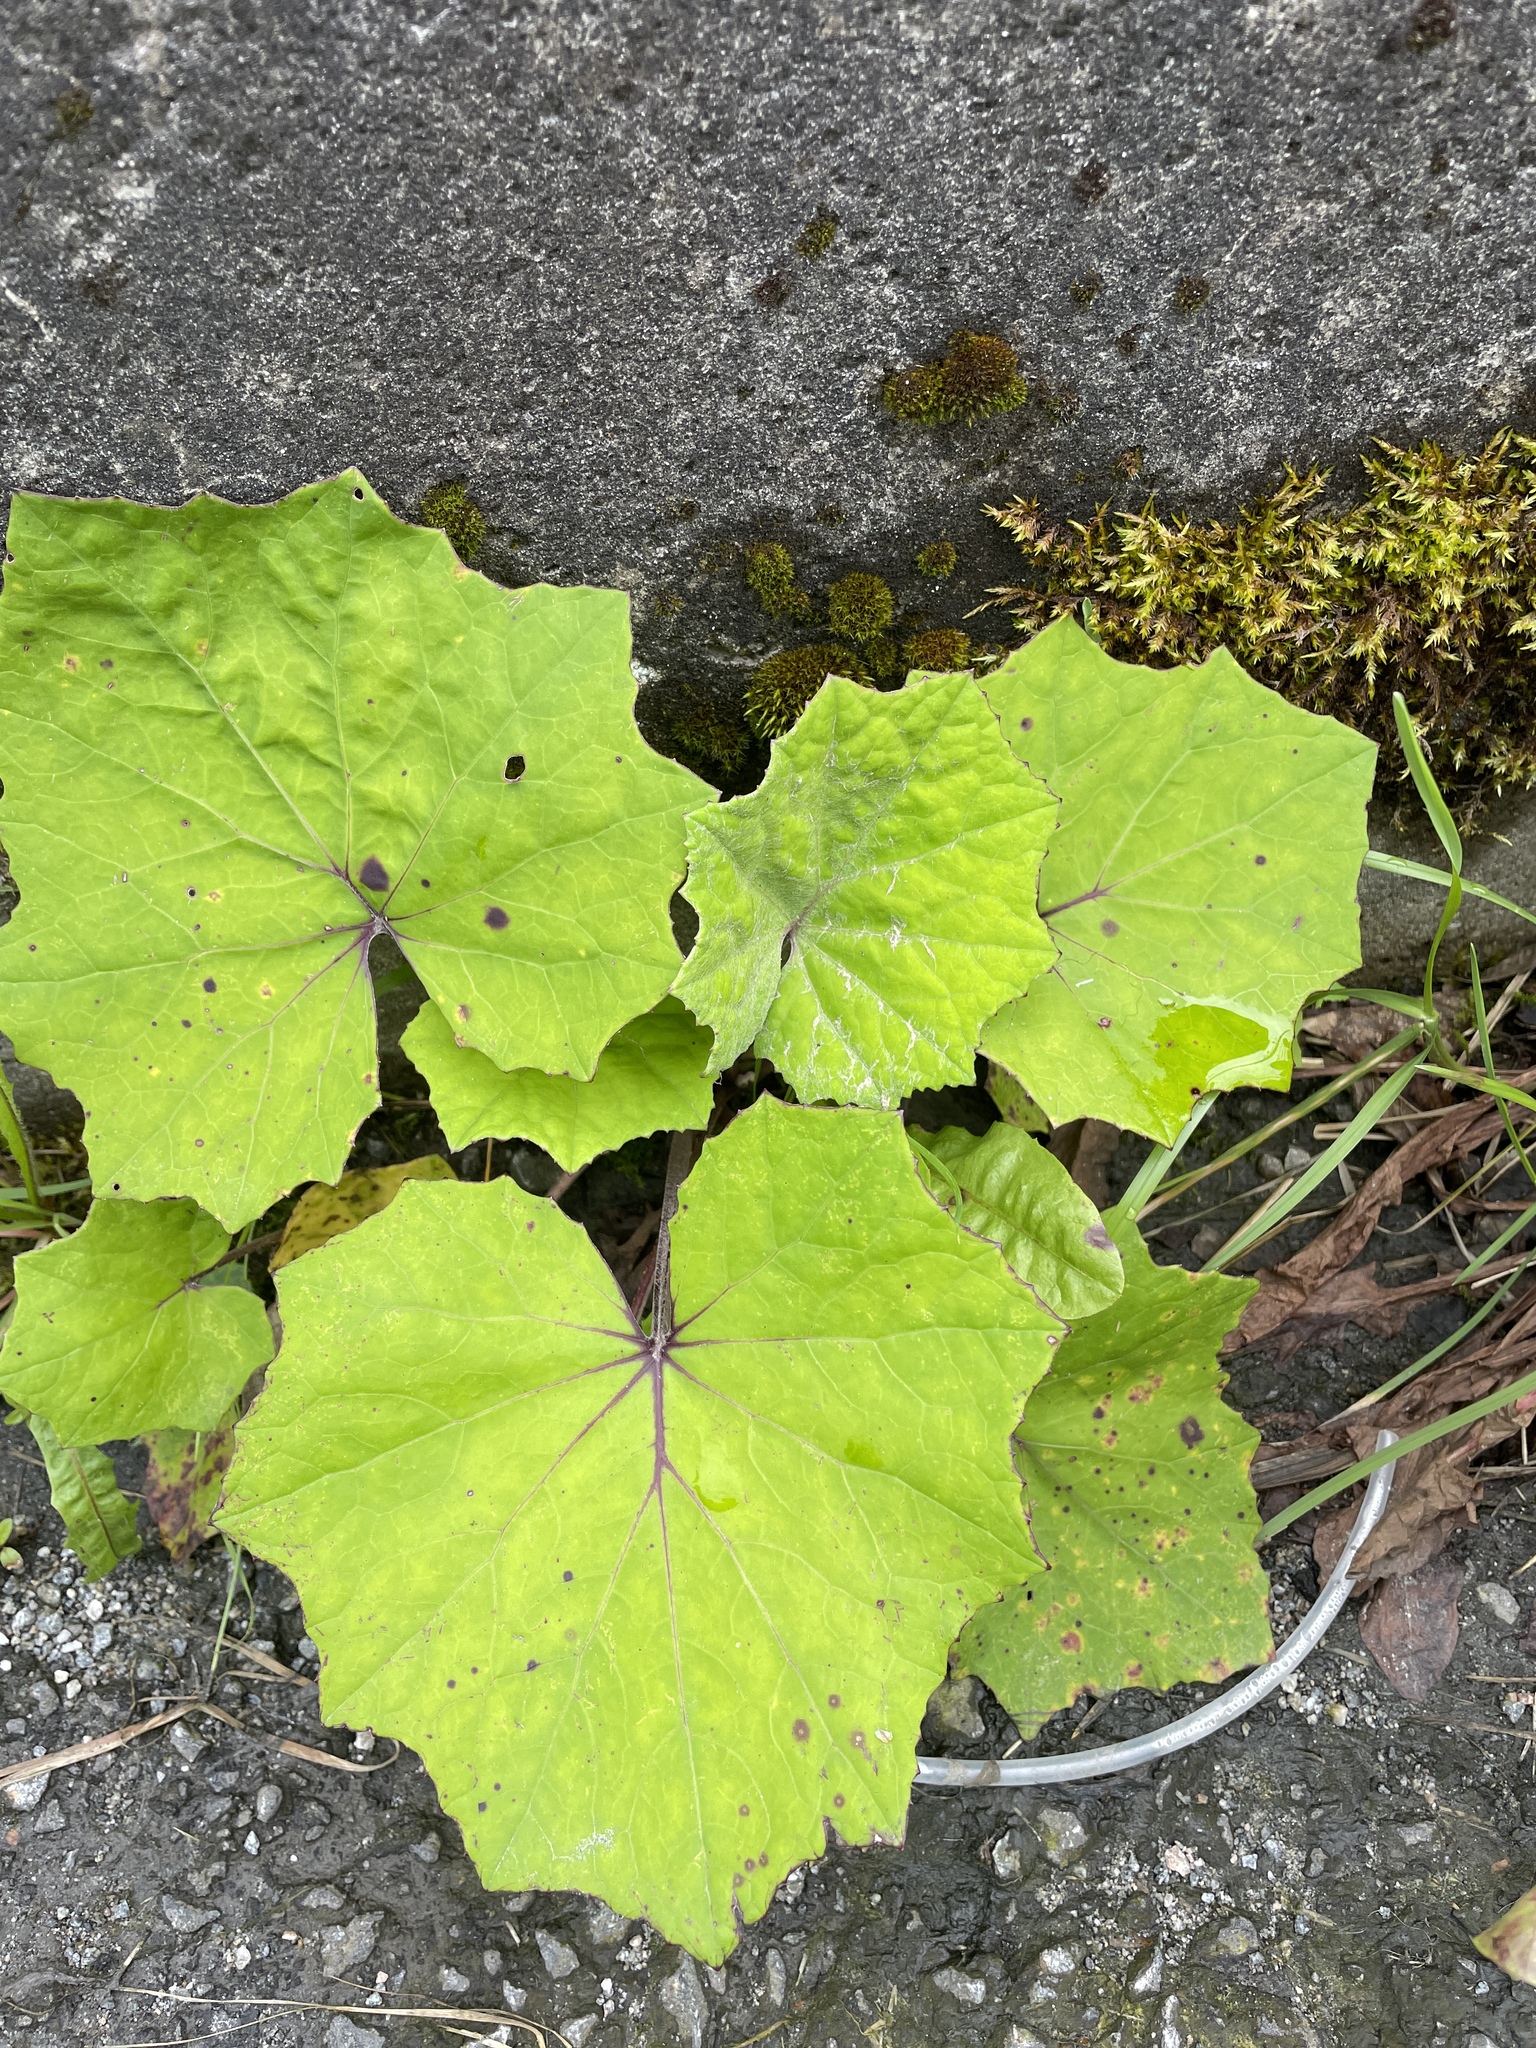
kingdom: Plantae
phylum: Tracheophyta
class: Magnoliopsida
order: Asterales
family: Asteraceae
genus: Tussilago
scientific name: Tussilago farfara
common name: Coltsfoot
